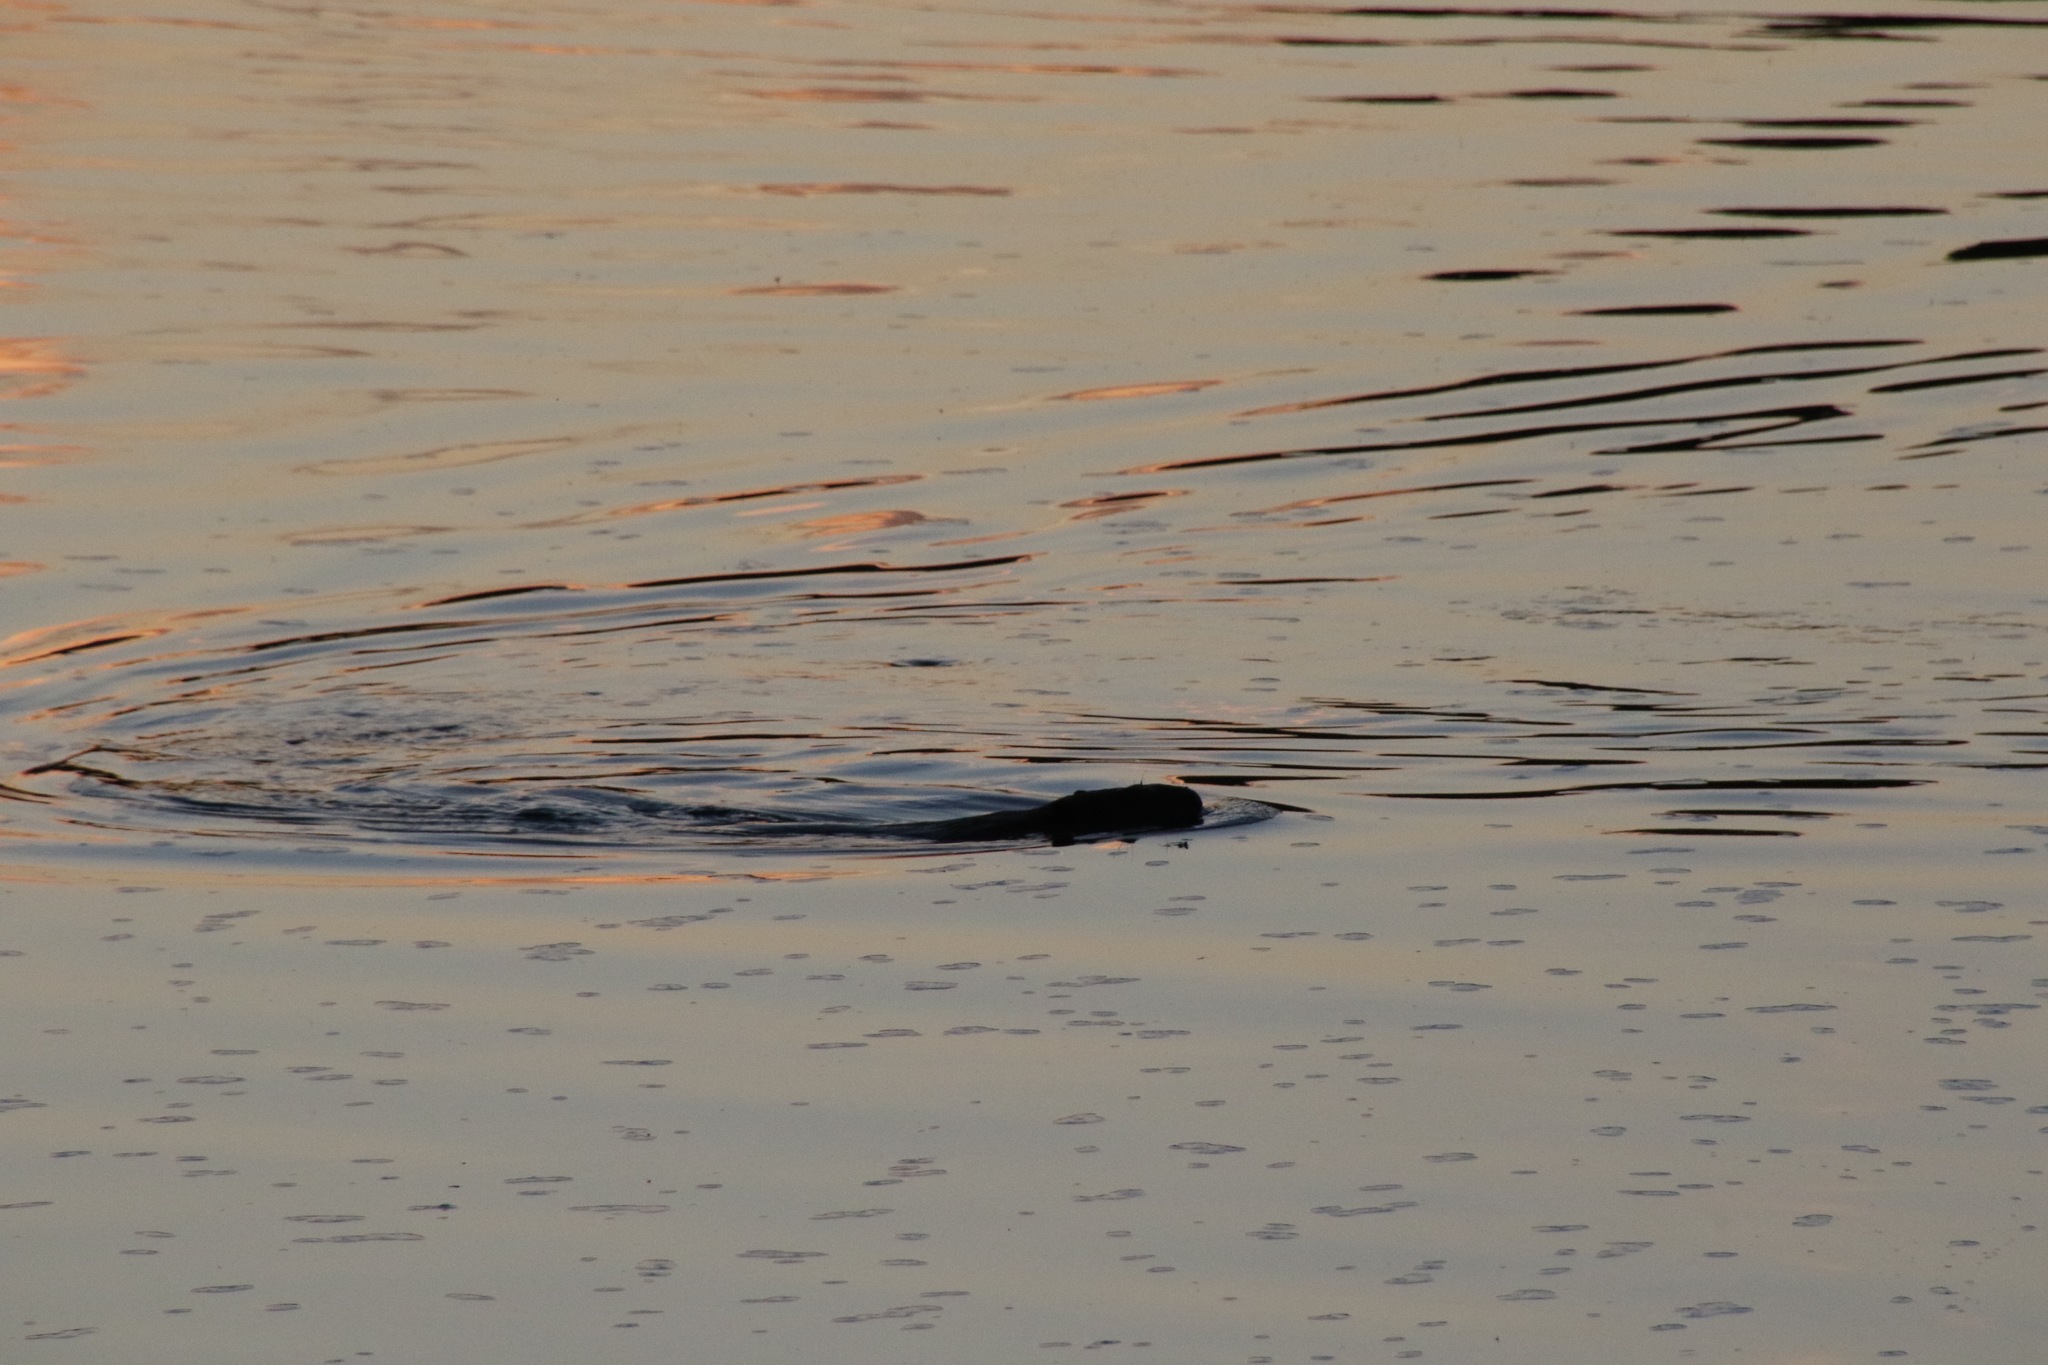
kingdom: Animalia
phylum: Chordata
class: Mammalia
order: Rodentia
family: Castoridae
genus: Castor
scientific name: Castor canadensis
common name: American beaver
